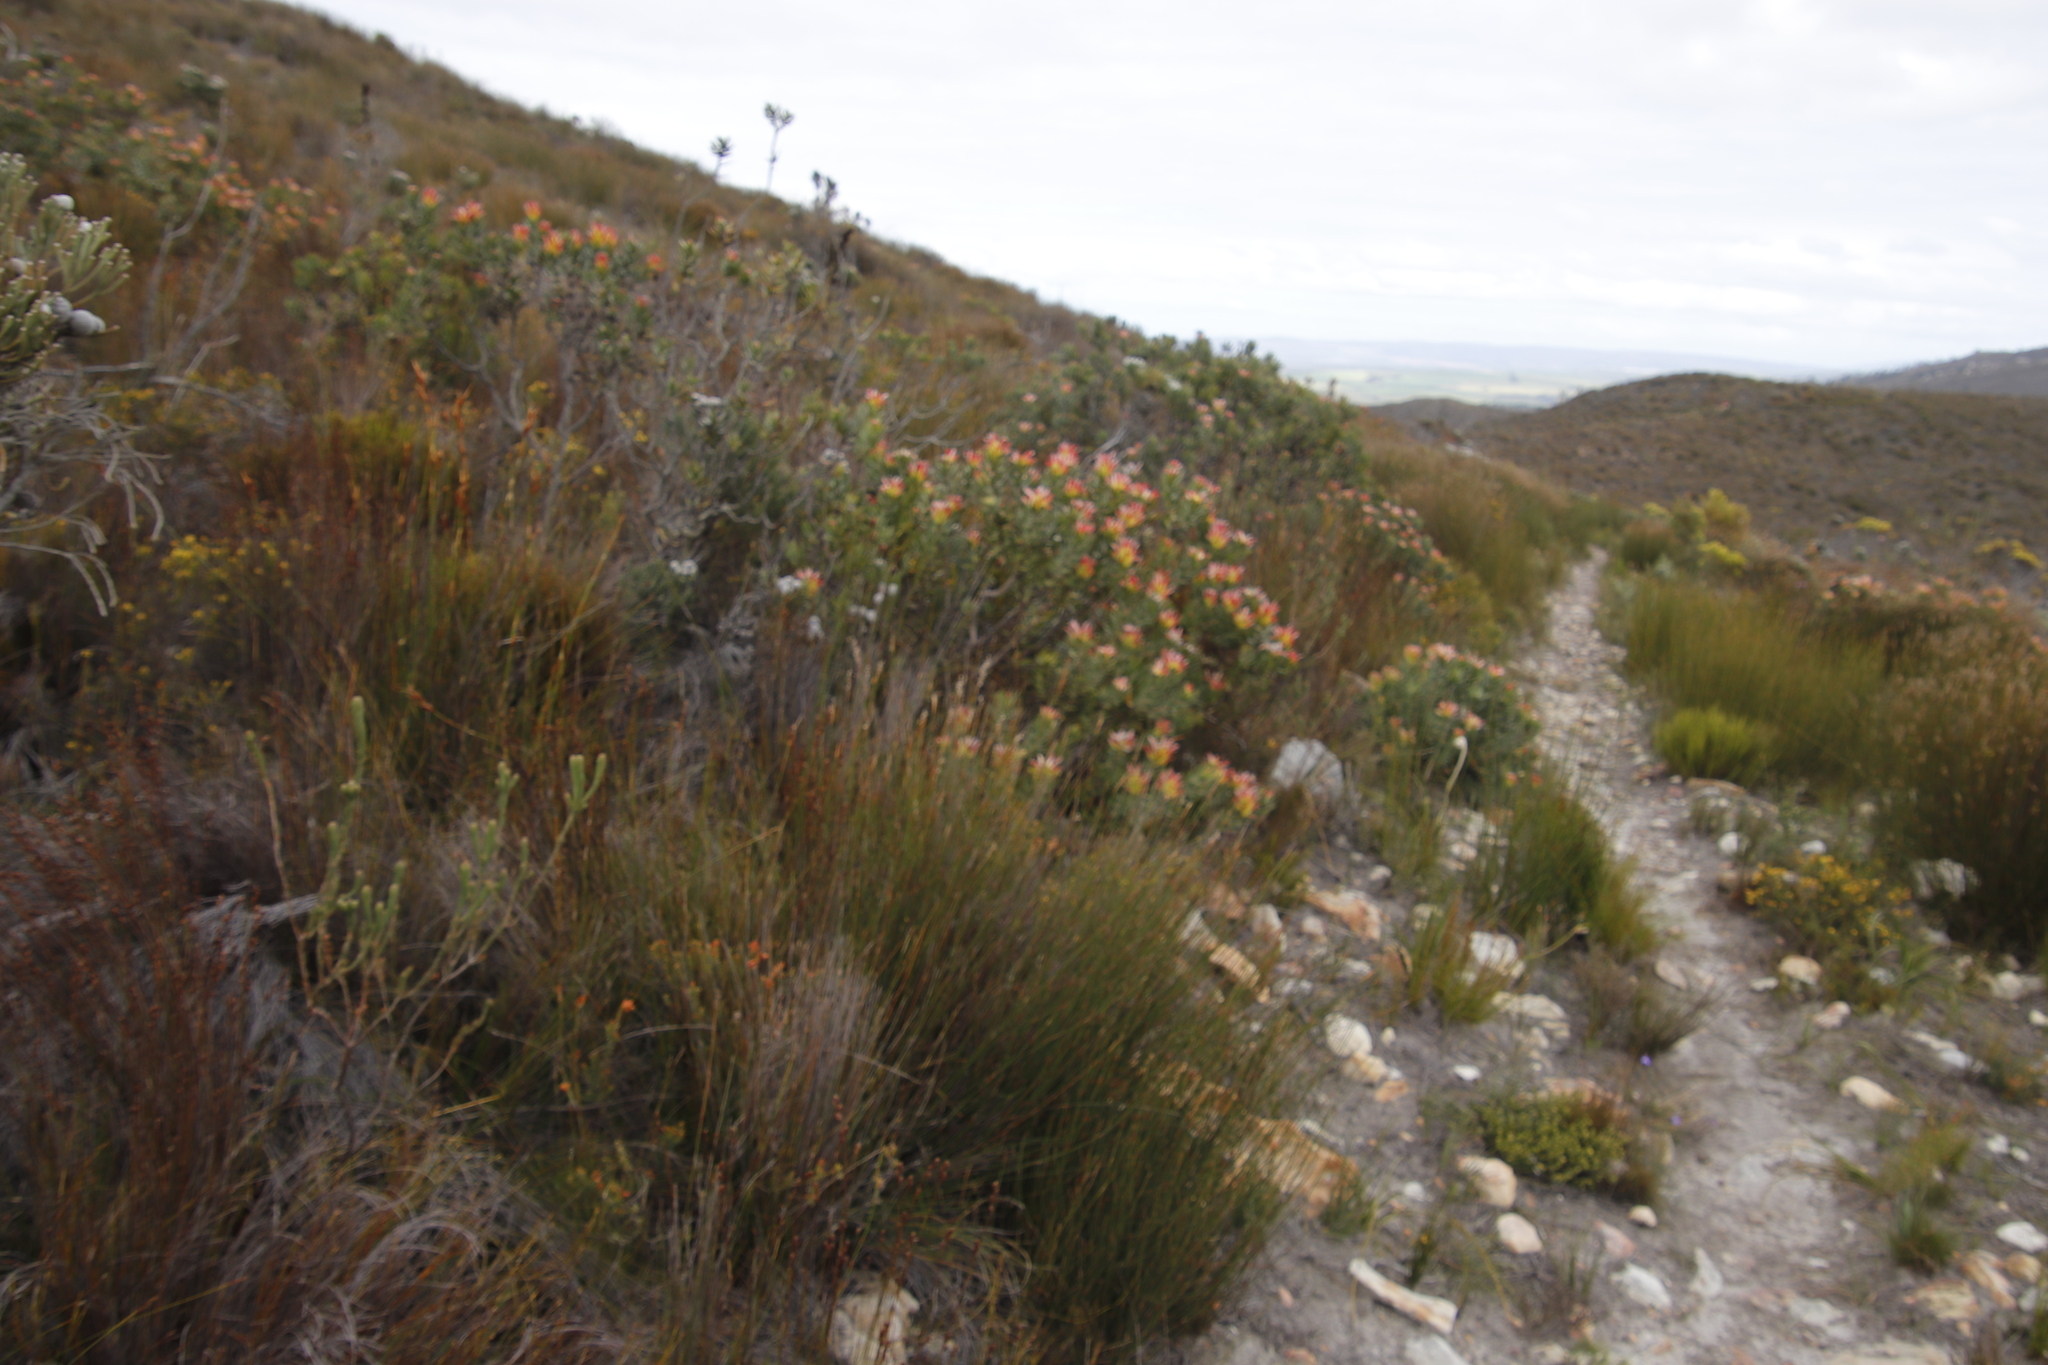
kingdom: Plantae
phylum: Tracheophyta
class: Magnoliopsida
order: Proteales
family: Proteaceae
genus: Mimetes
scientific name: Mimetes cucullatus
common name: Common pagoda
